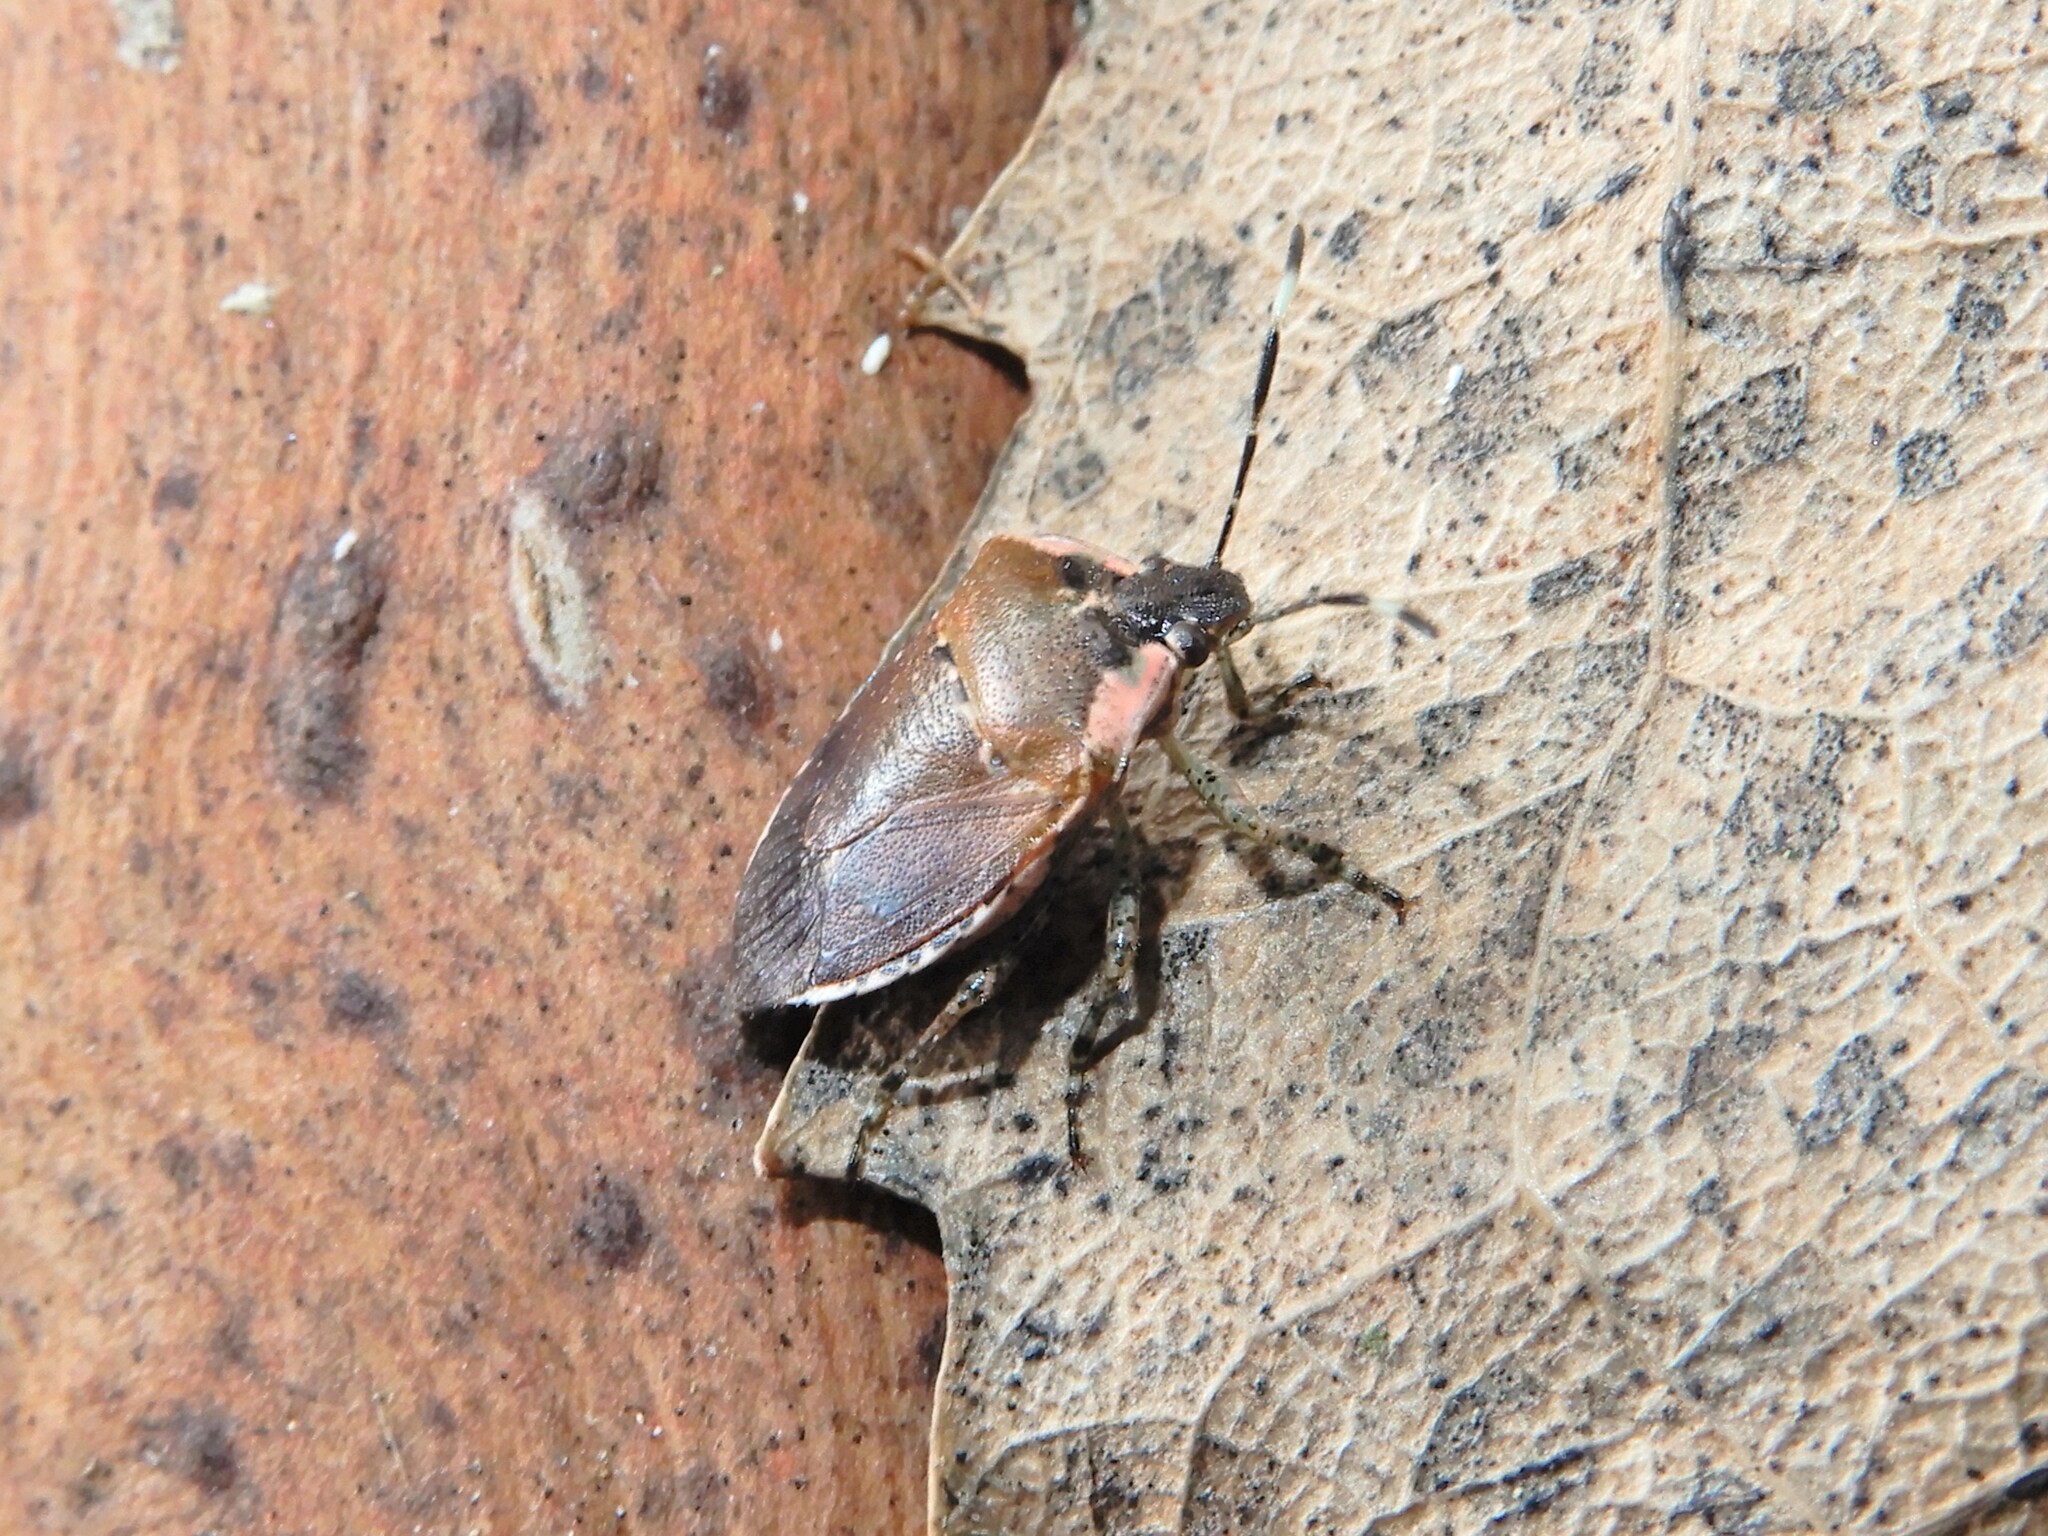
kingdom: Animalia
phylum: Arthropoda
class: Insecta
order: Hemiptera
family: Pentatomidae
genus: Monteithiella
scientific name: Monteithiella
